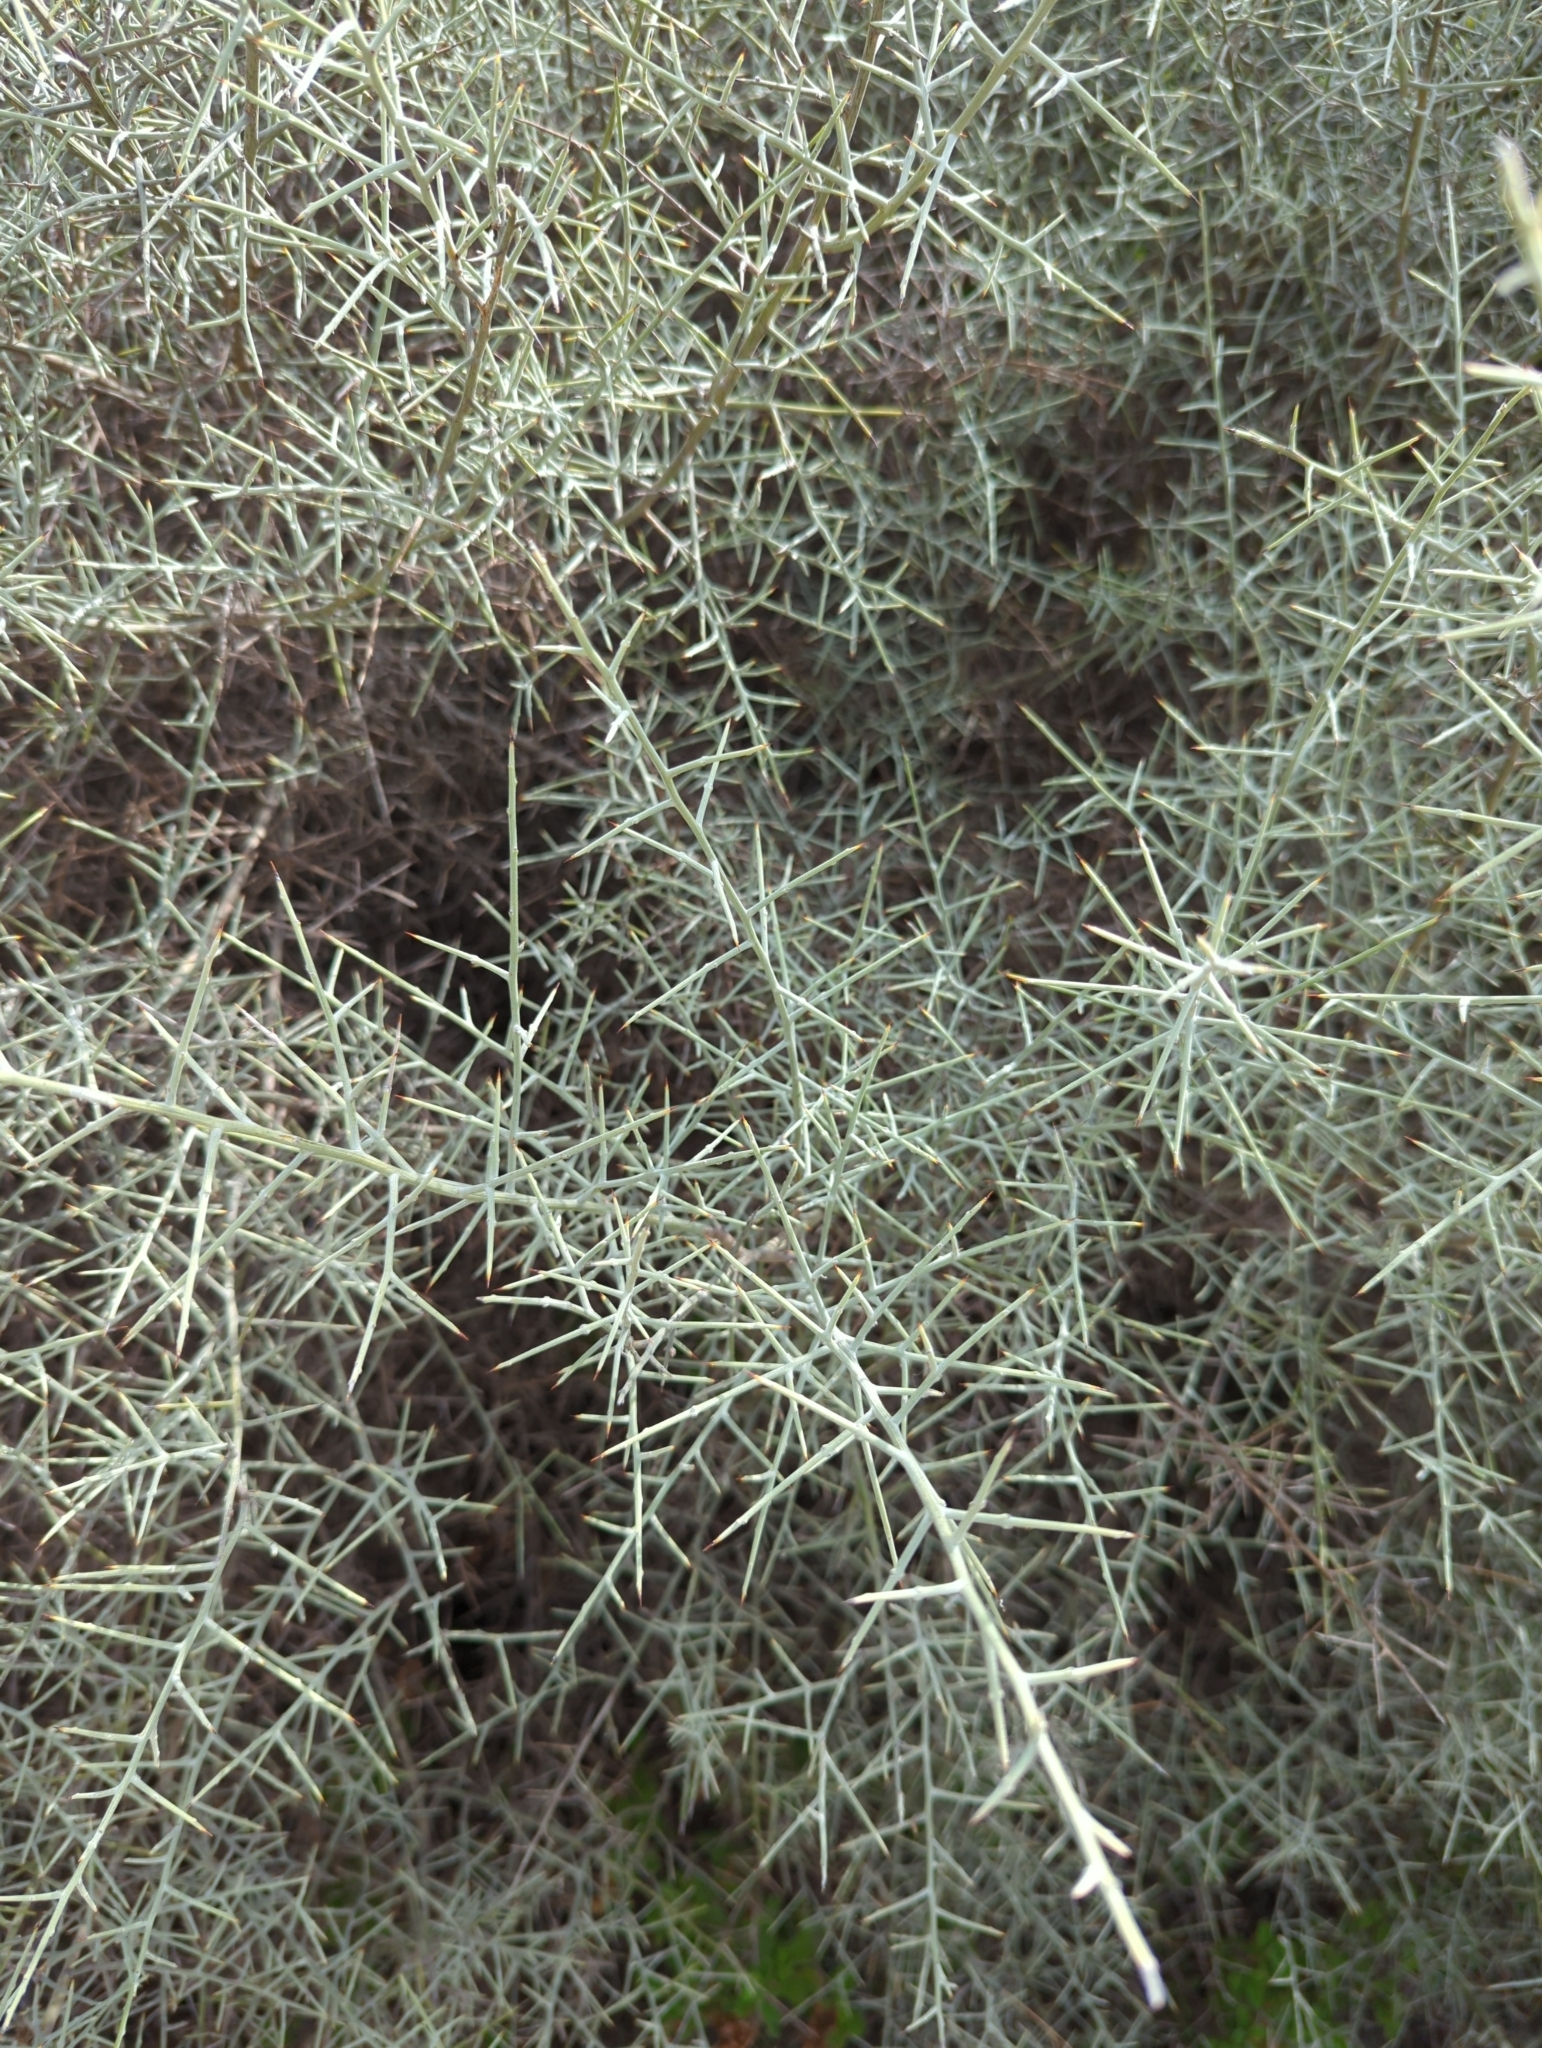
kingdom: Plantae
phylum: Tracheophyta
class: Magnoliopsida
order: Fabales
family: Fabaceae
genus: Calicotome
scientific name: Calicotome villosa
